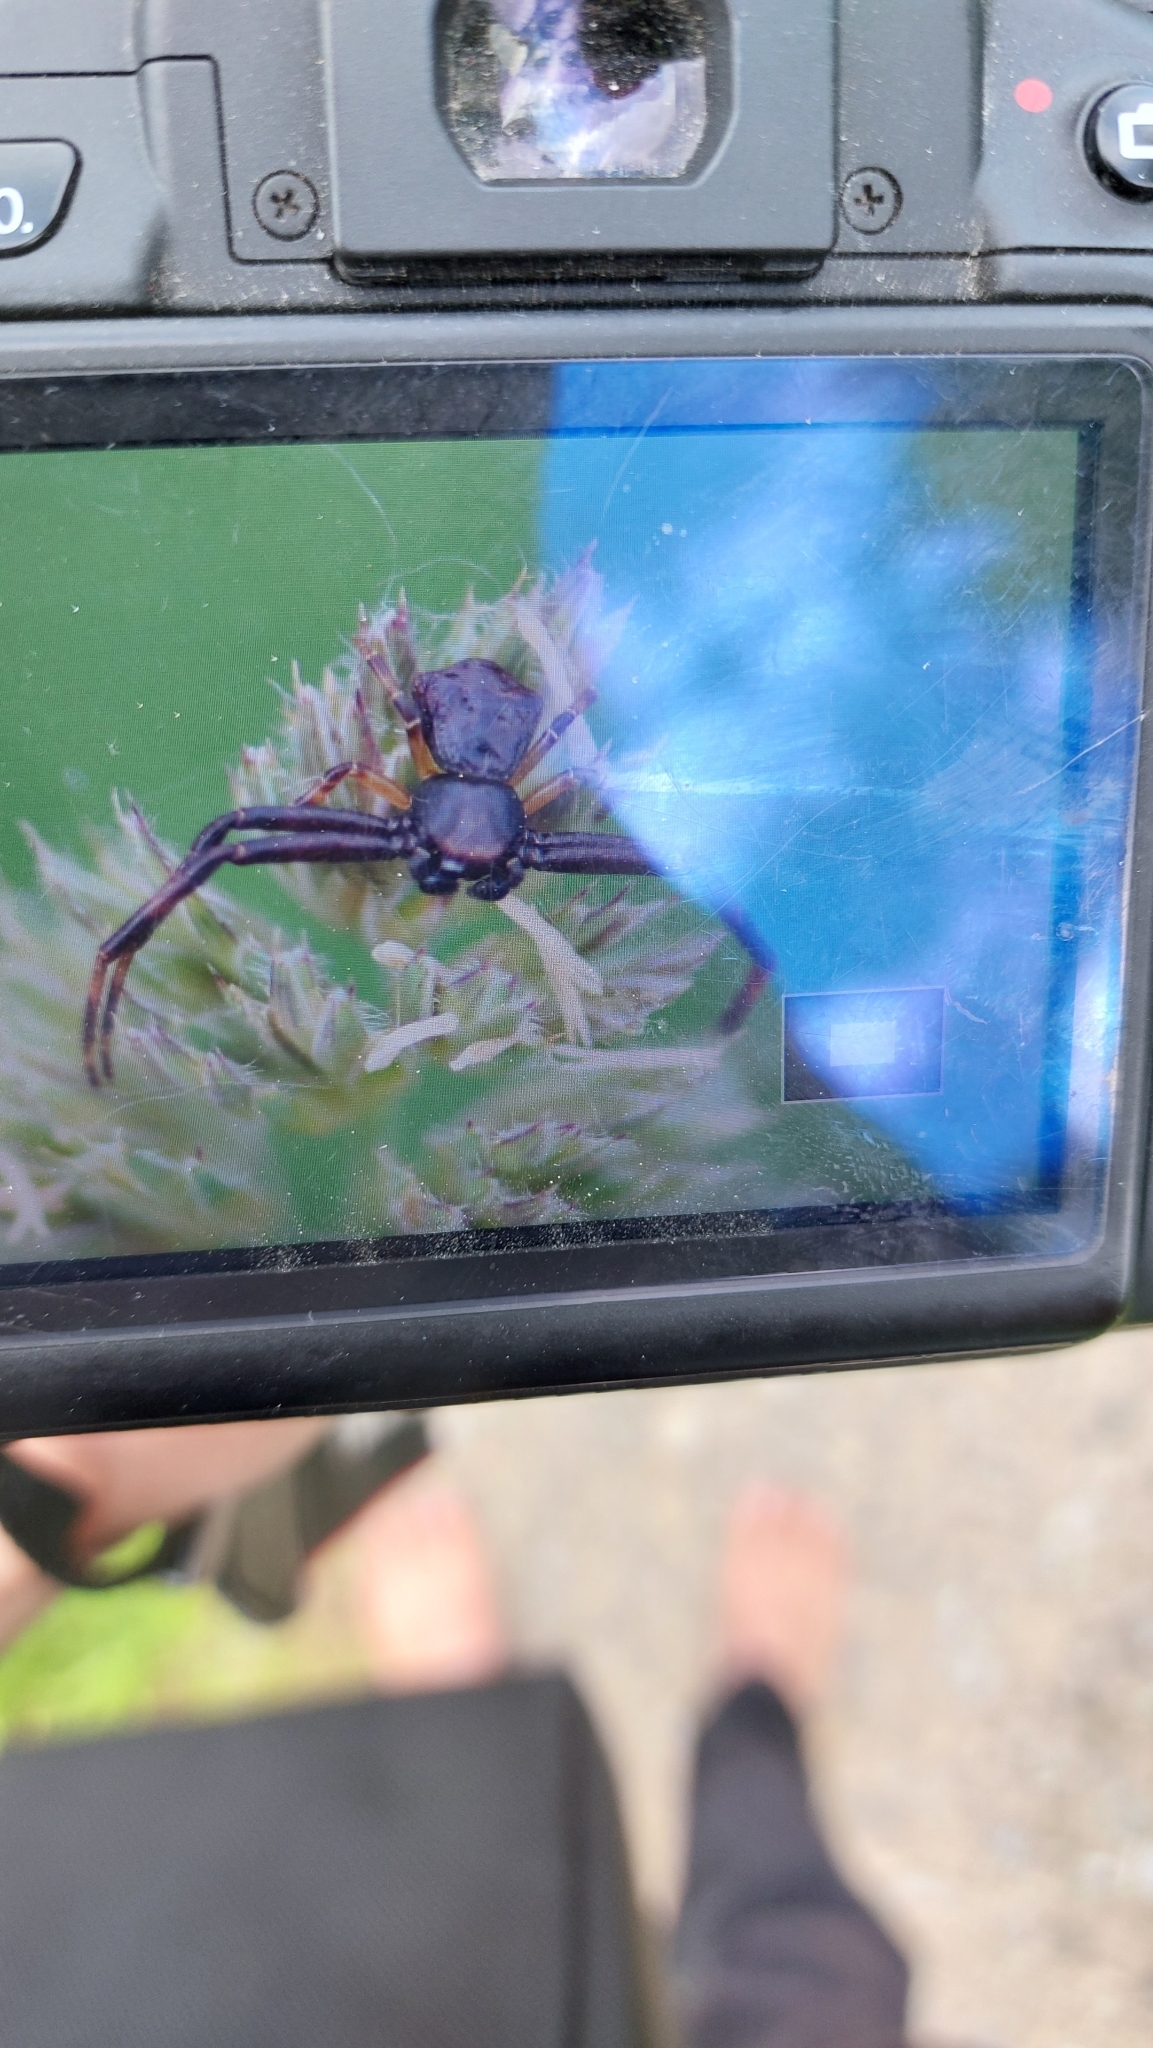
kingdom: Animalia
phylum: Arthropoda
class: Arachnida
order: Araneae
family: Thomisidae
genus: Pistius
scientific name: Pistius truncatus
